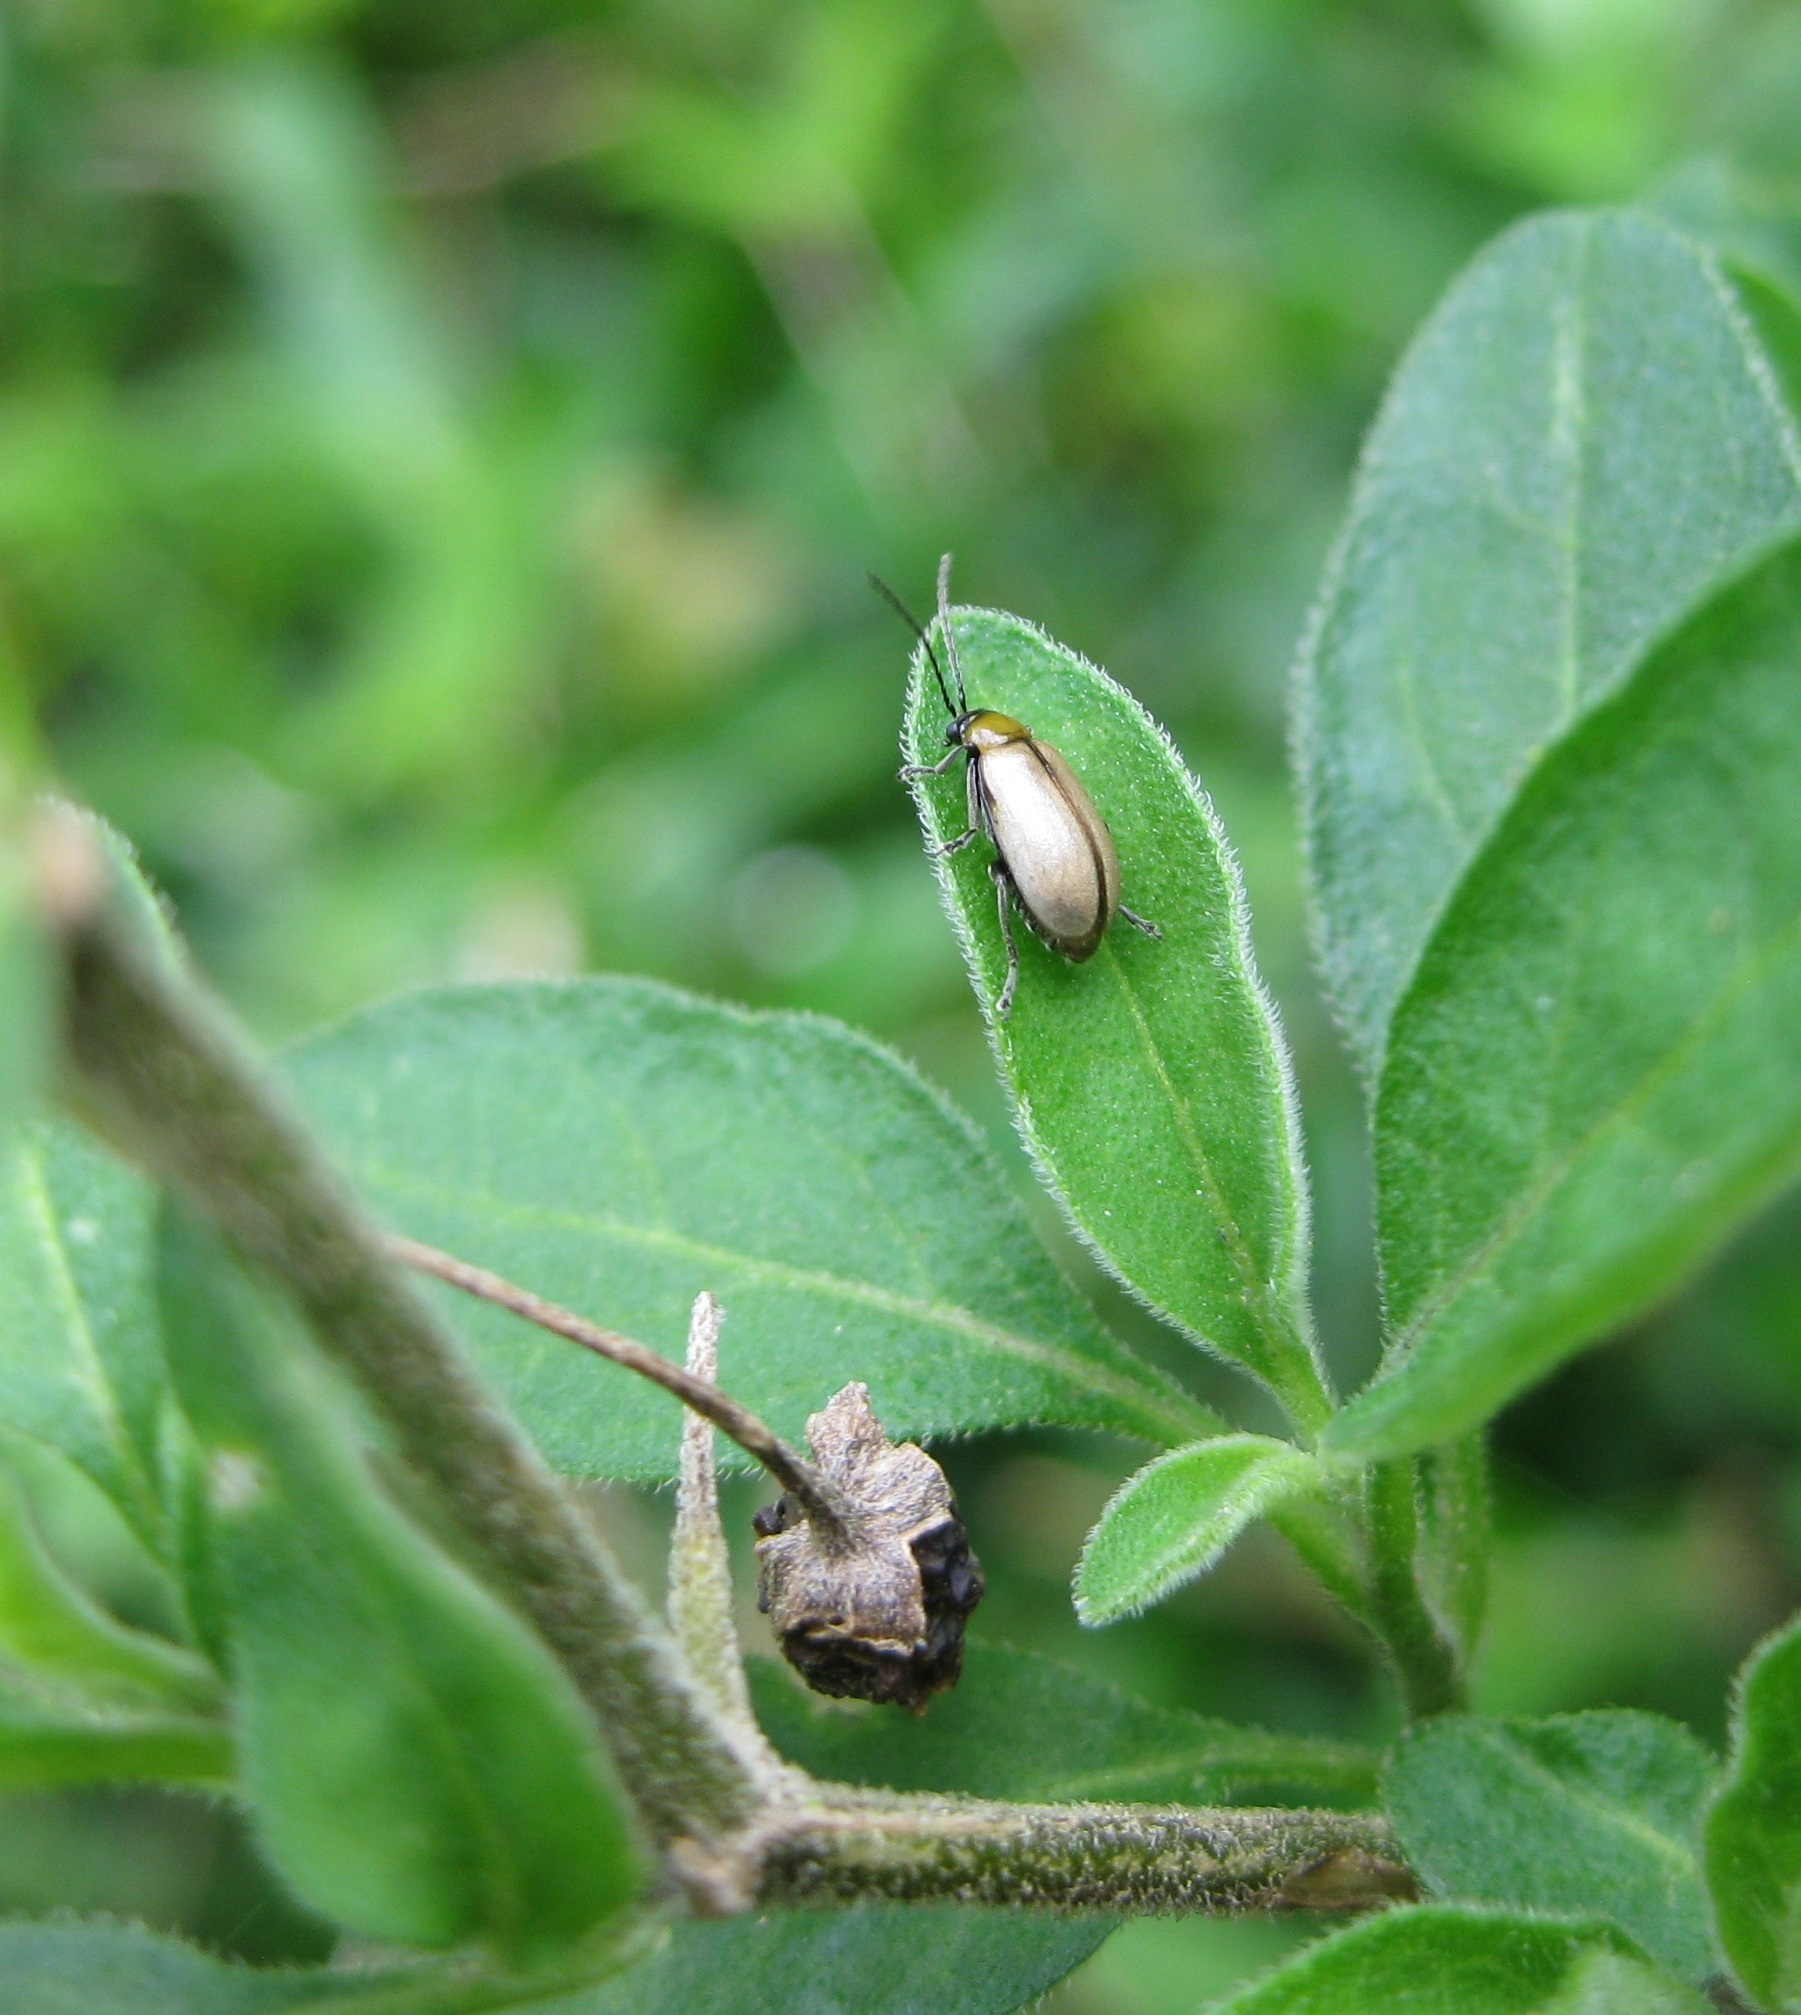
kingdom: Animalia
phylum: Arthropoda
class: Insecta
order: Coleoptera
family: Chrysomelidae
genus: Adoxia
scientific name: Adoxia
